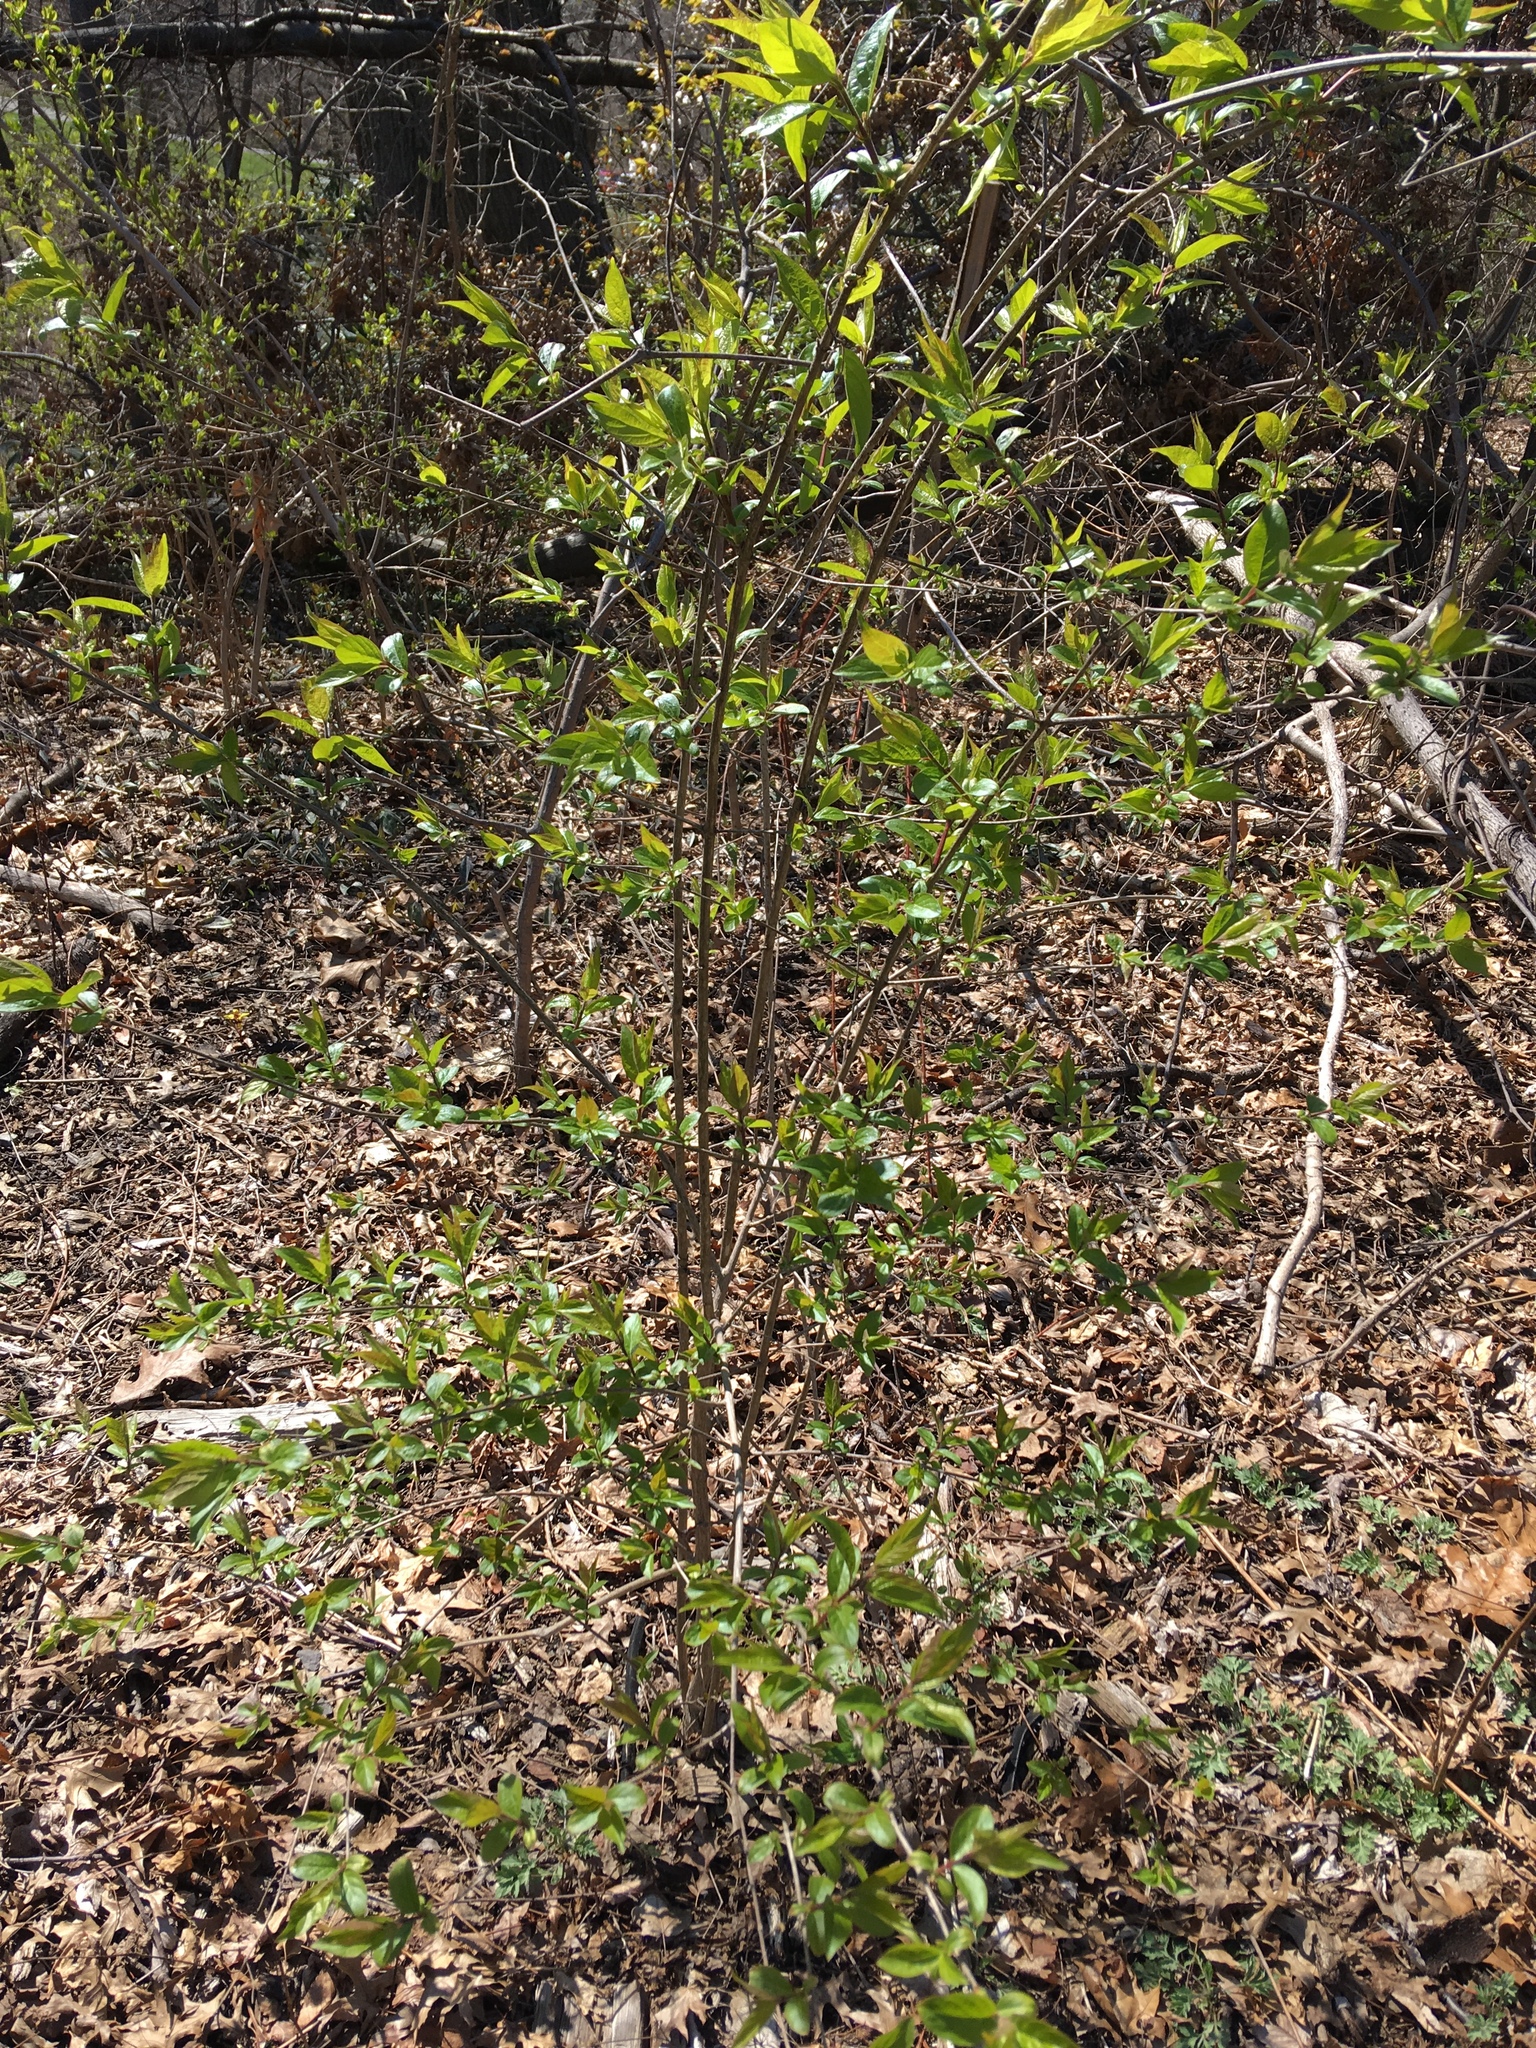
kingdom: Plantae
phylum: Tracheophyta
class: Magnoliopsida
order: Dipsacales
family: Caprifoliaceae
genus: Lonicera
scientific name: Lonicera maackii
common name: Amur honeysuckle
